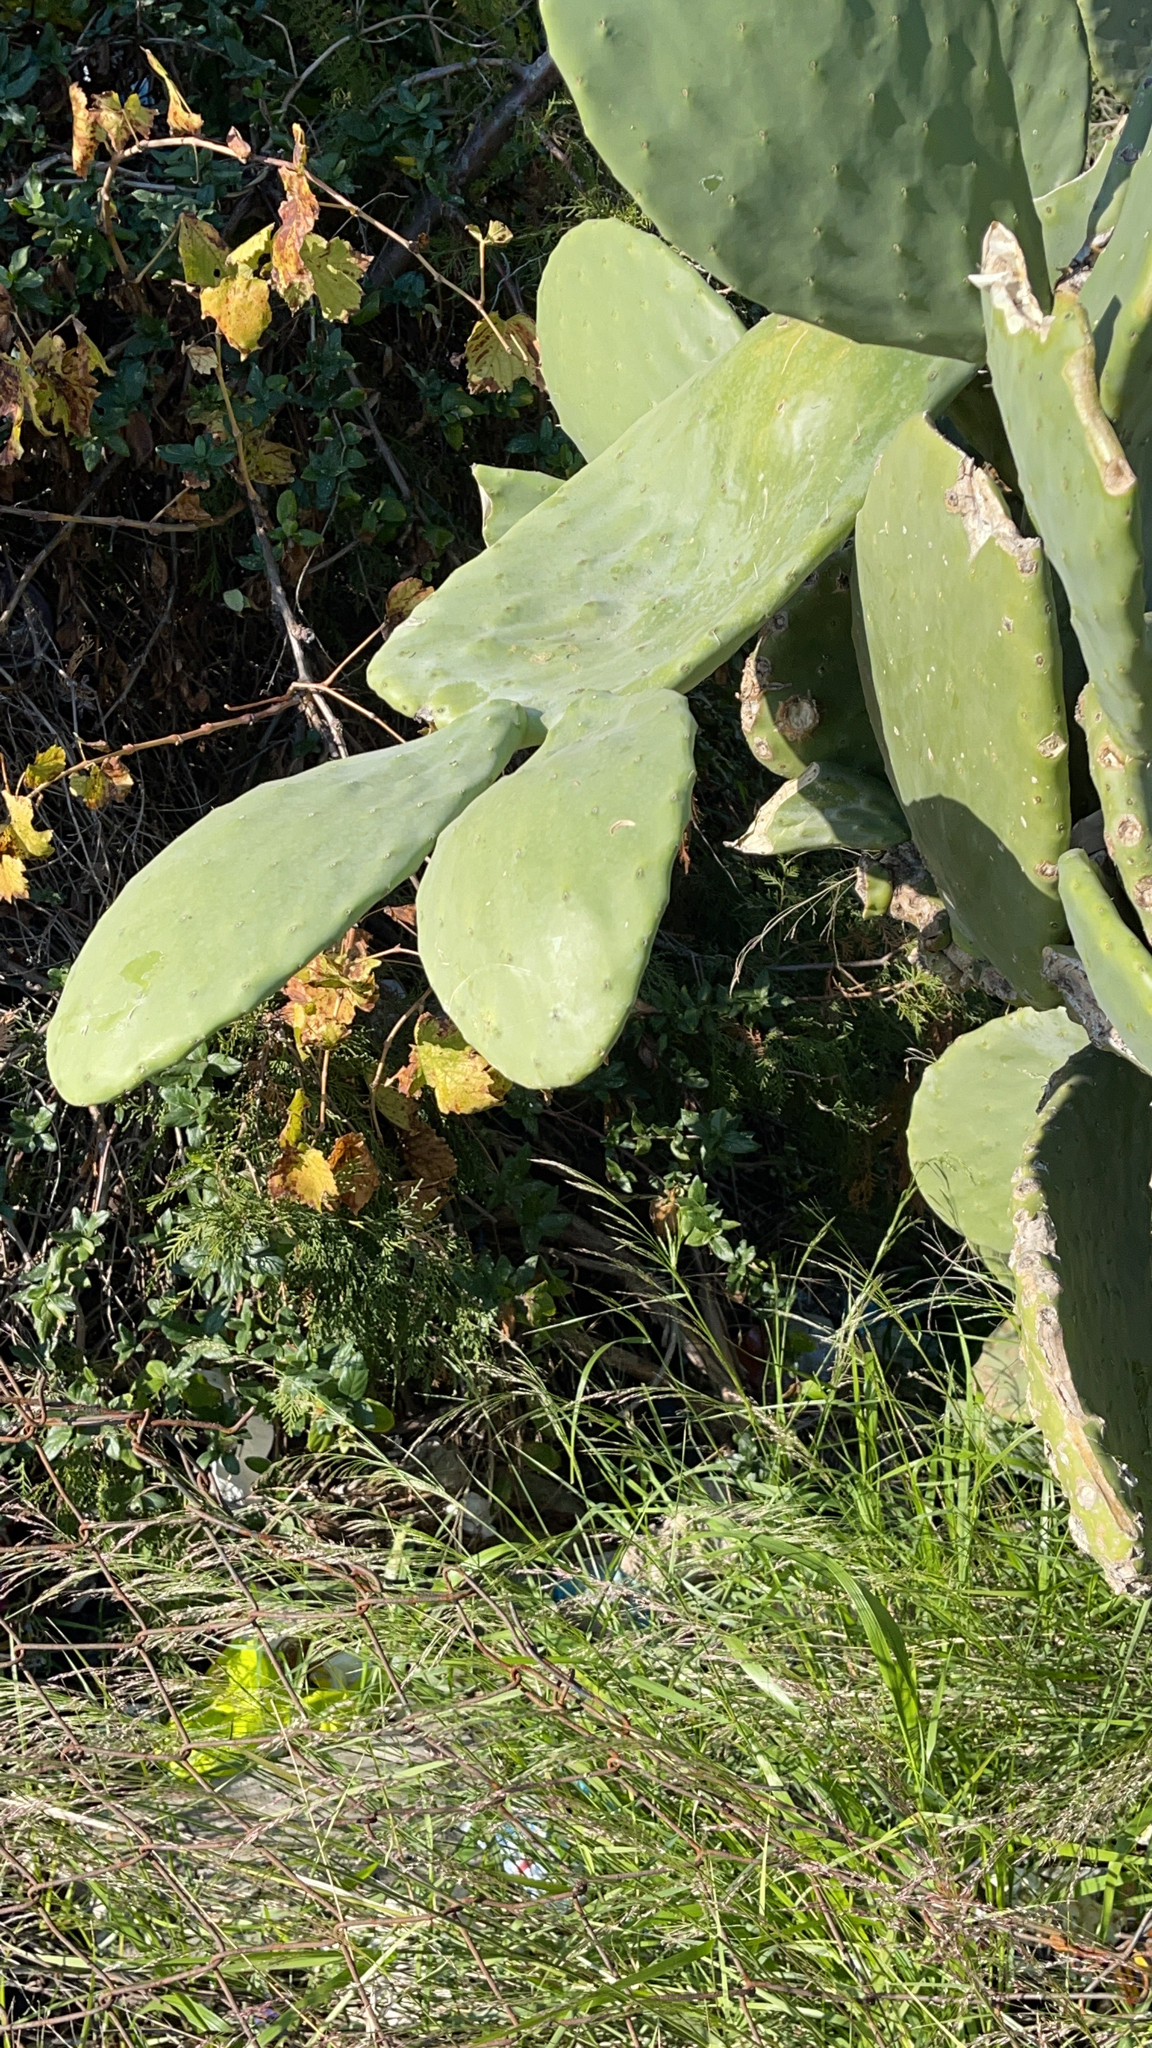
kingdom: Plantae
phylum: Tracheophyta
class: Magnoliopsida
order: Caryophyllales
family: Cactaceae
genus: Opuntia
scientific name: Opuntia ficus-indica
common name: Barbary fig
